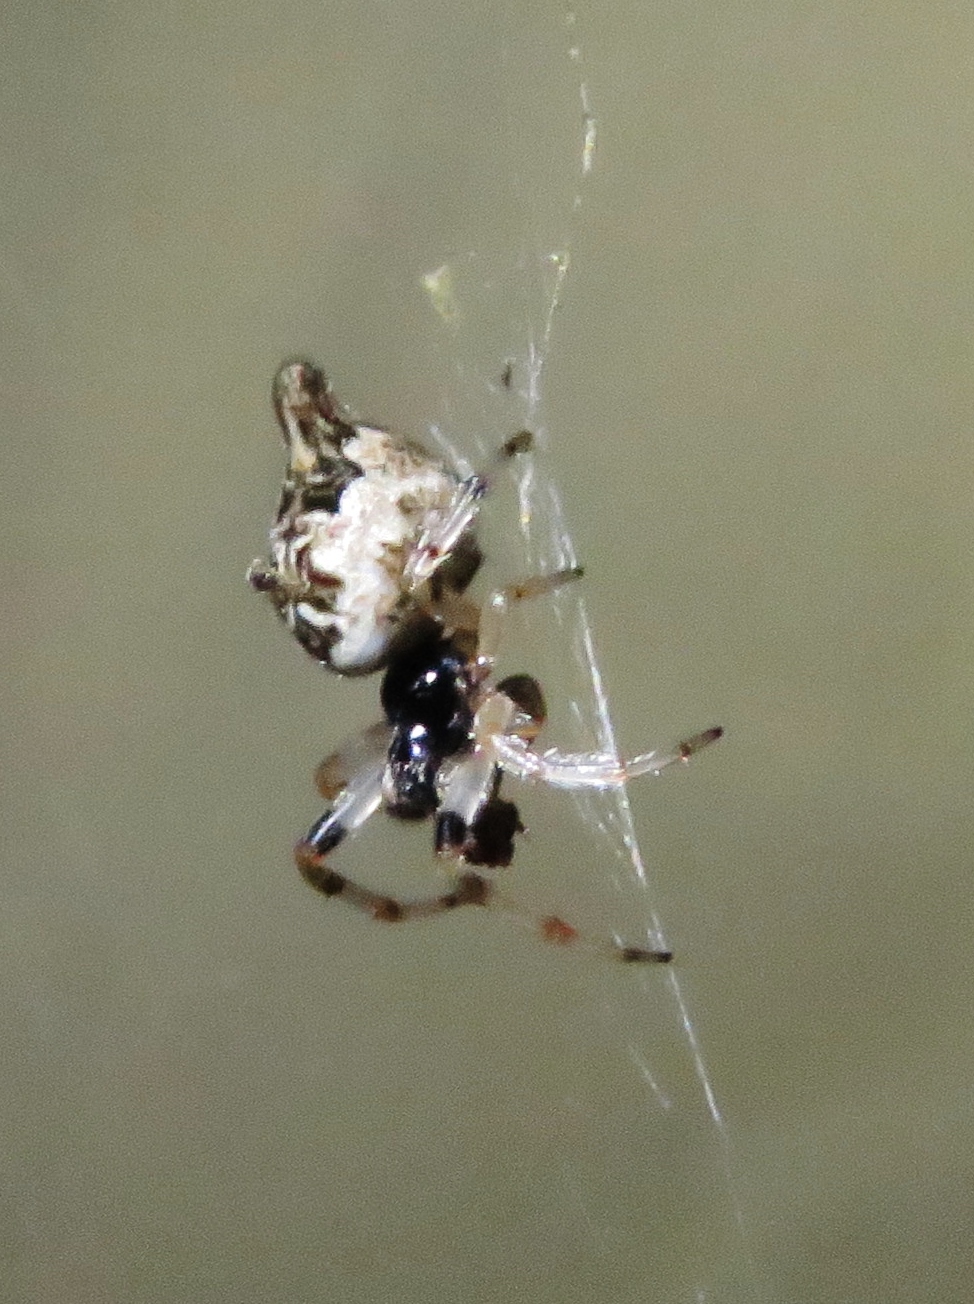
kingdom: Animalia
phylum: Arthropoda
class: Arachnida
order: Araneae
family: Araneidae
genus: Cyclosa
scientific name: Cyclosa turbinata
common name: Orb weavers
